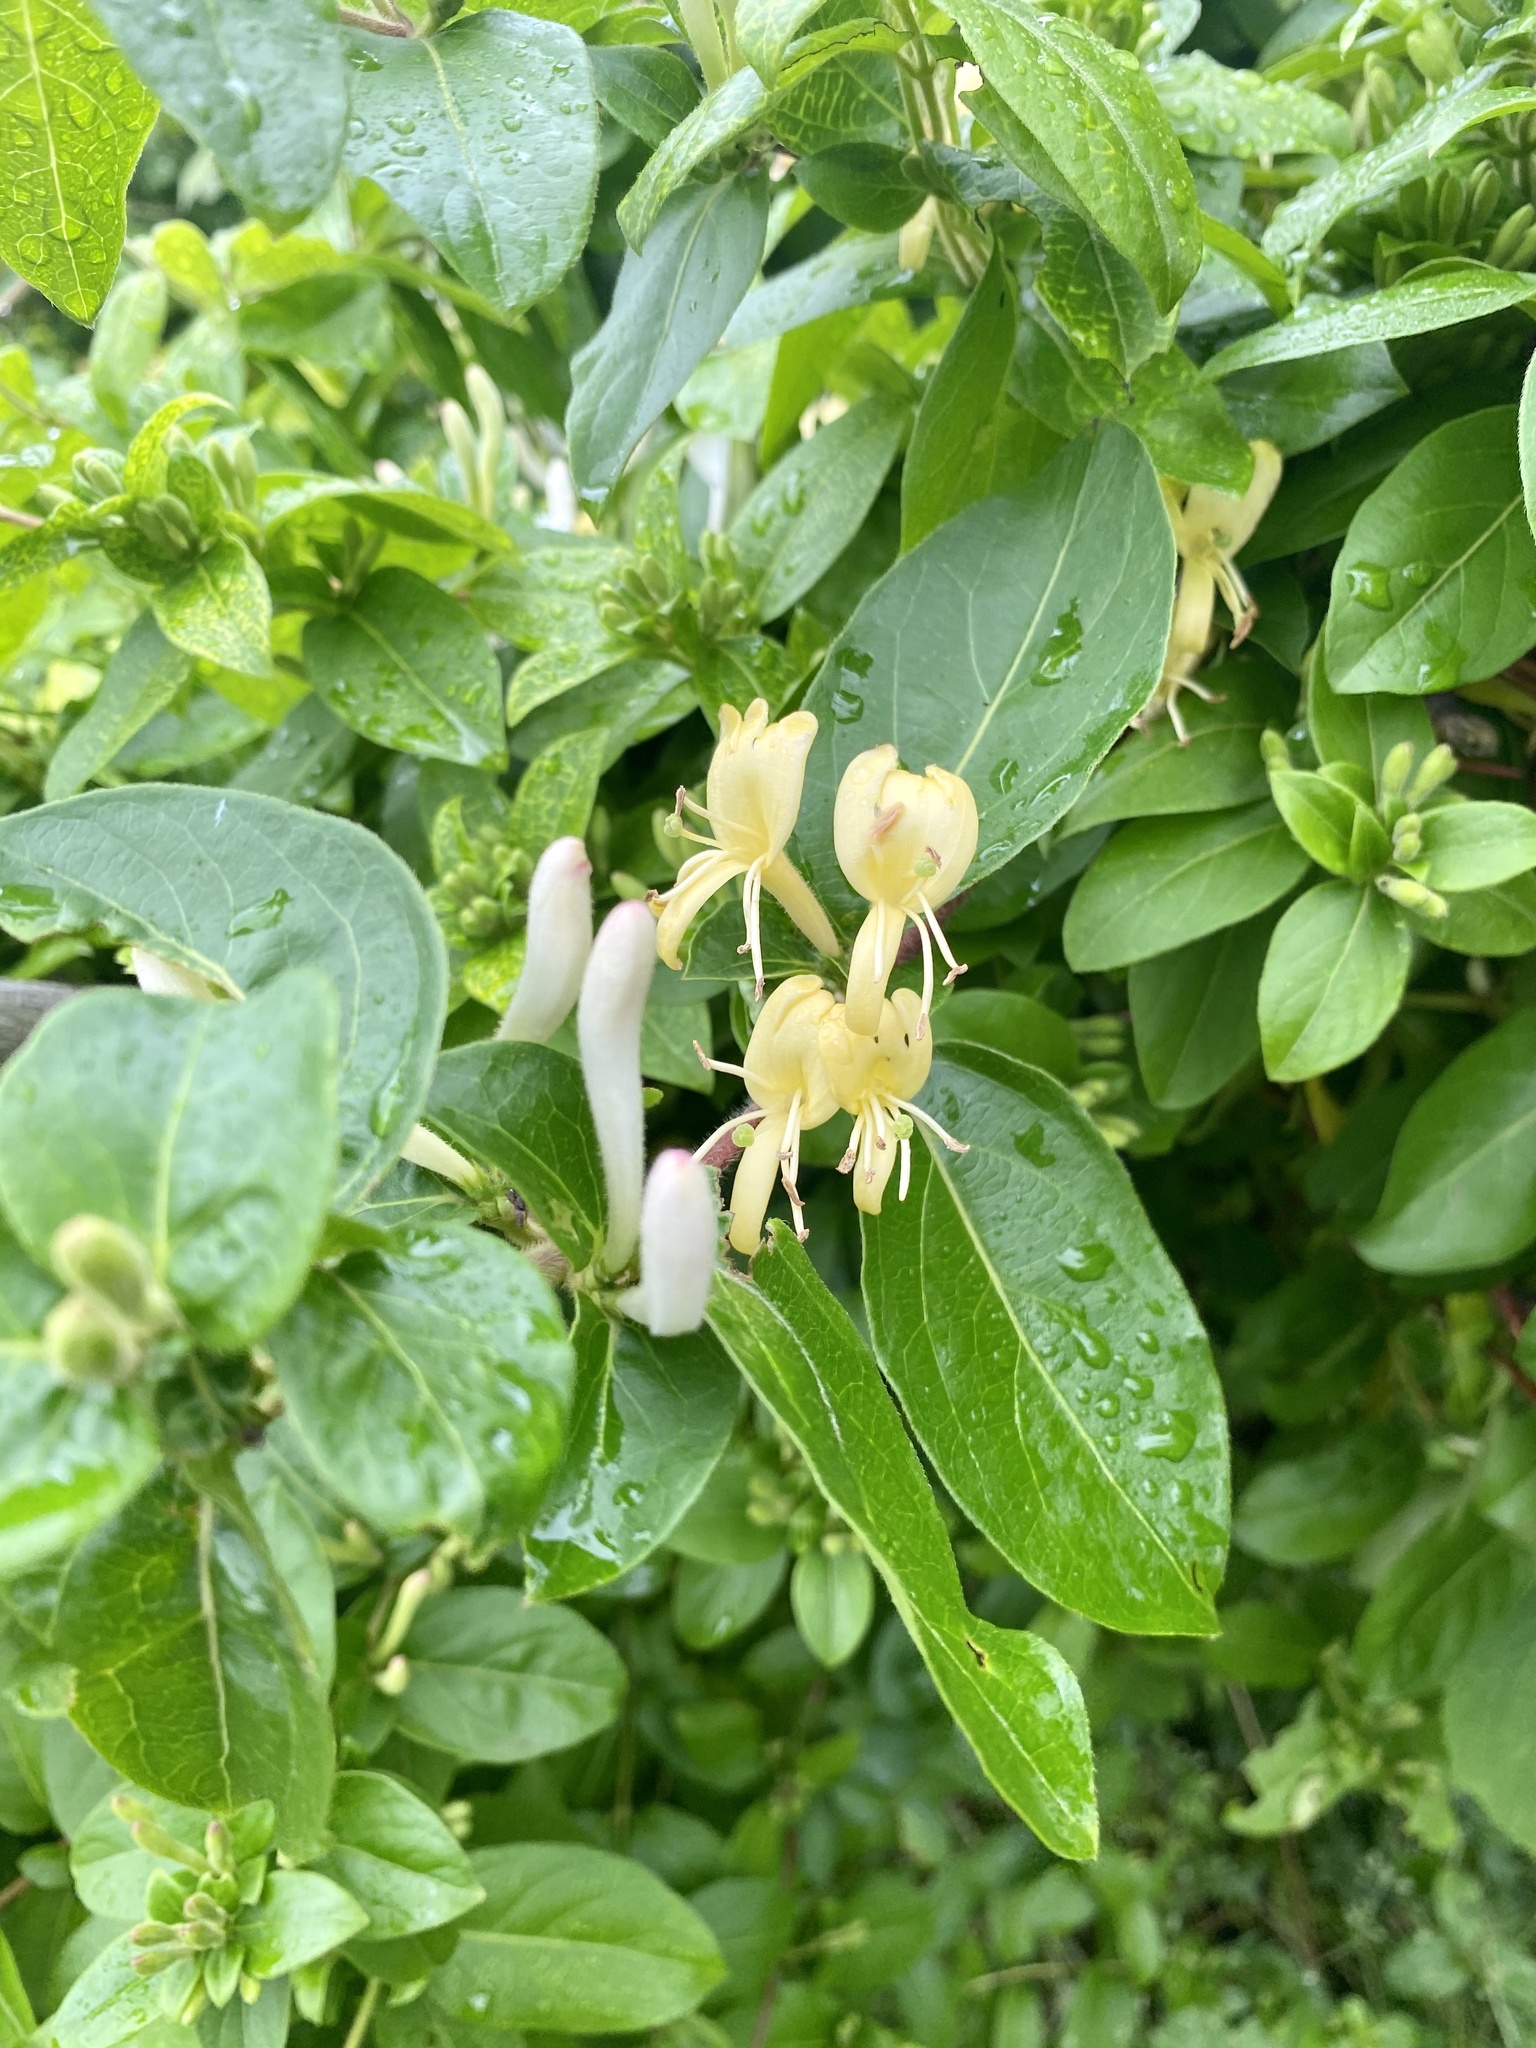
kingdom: Plantae
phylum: Tracheophyta
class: Magnoliopsida
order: Dipsacales
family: Caprifoliaceae
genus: Lonicera
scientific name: Lonicera japonica
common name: Japanese honeysuckle
